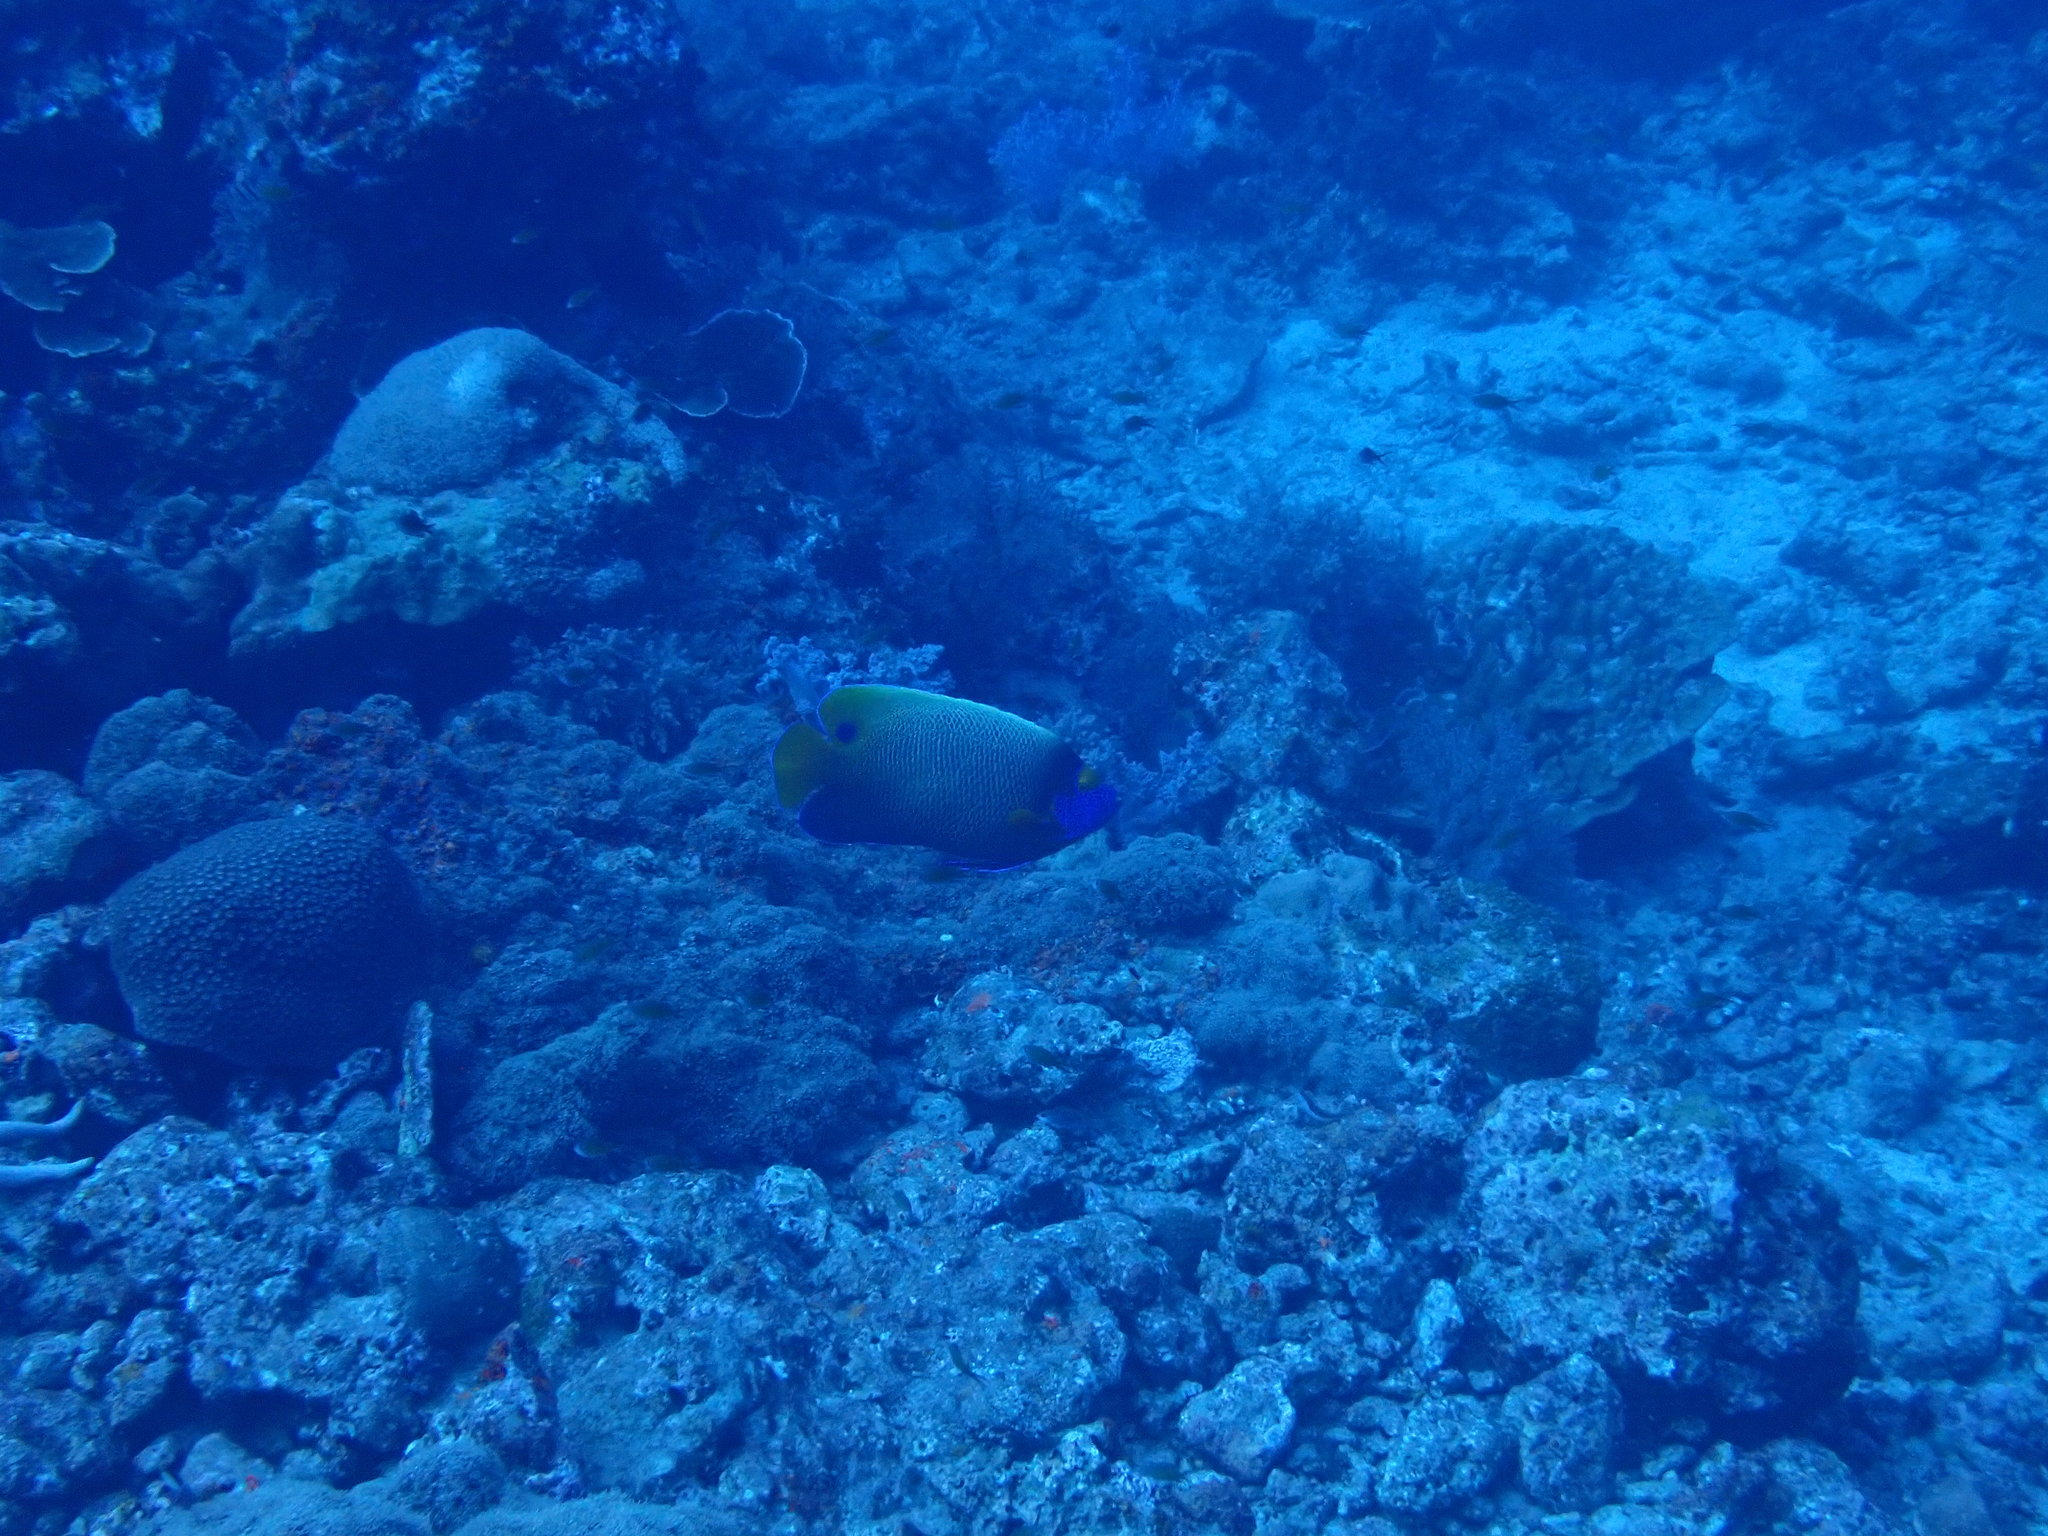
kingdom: Animalia
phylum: Chordata
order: Perciformes
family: Pomacanthidae
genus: Pomacanthus
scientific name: Pomacanthus xanthometopon
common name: Yellow-faced angelfish
